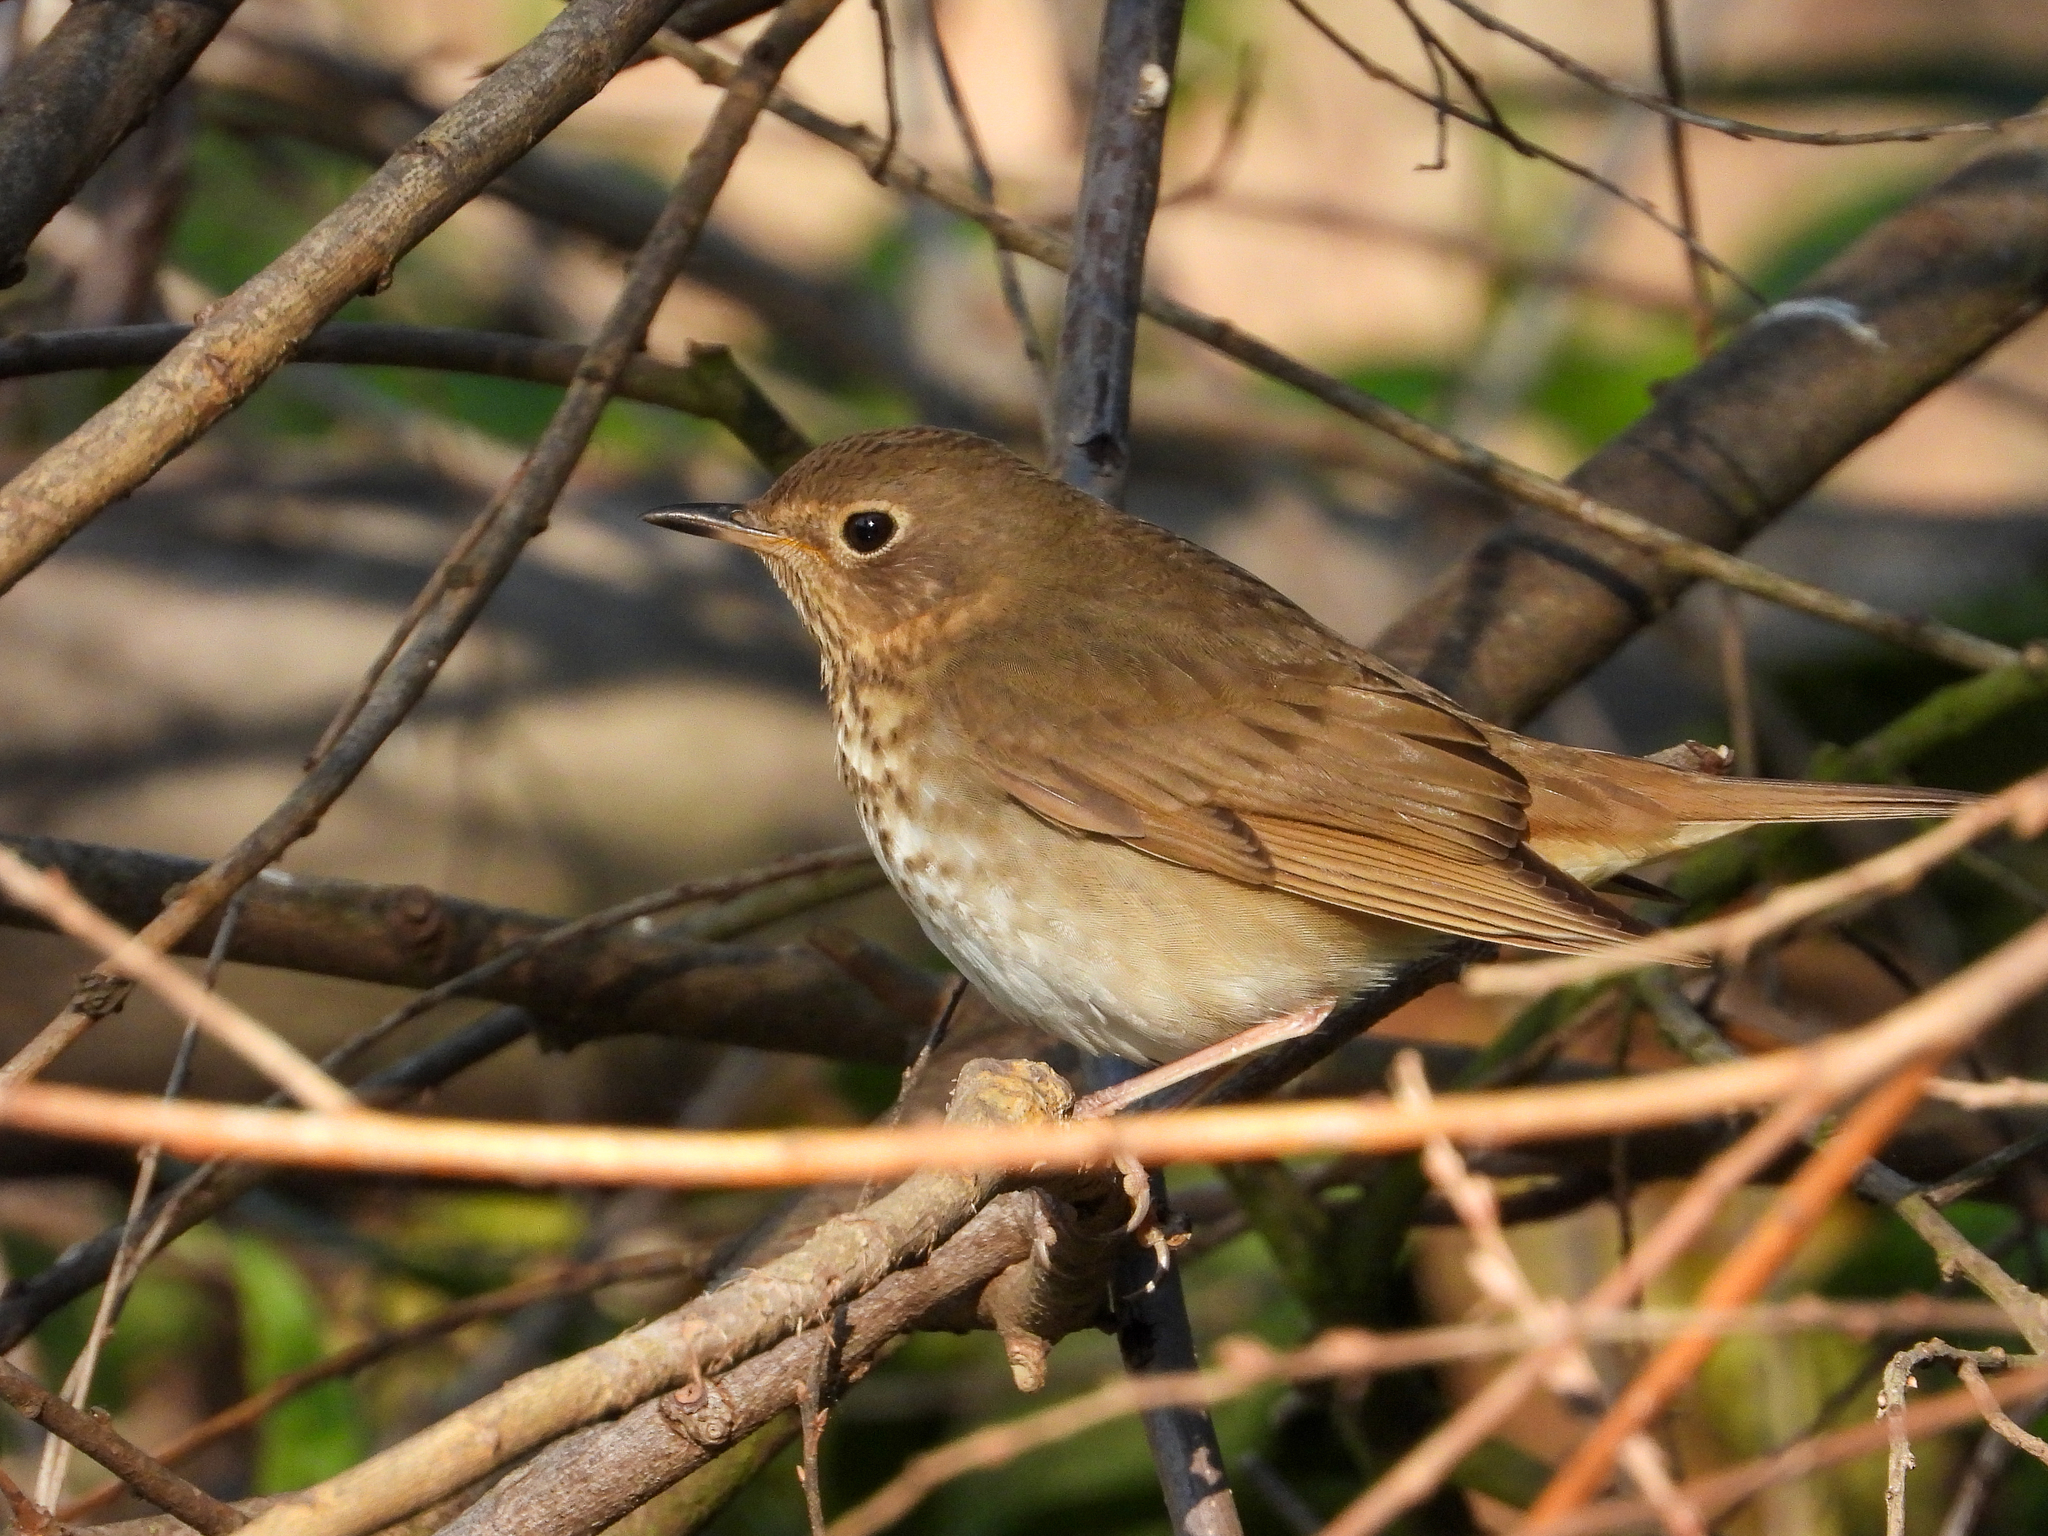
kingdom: Animalia
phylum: Chordata
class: Aves
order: Passeriformes
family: Turdidae
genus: Catharus
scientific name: Catharus ustulatus
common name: Swainson's thrush
